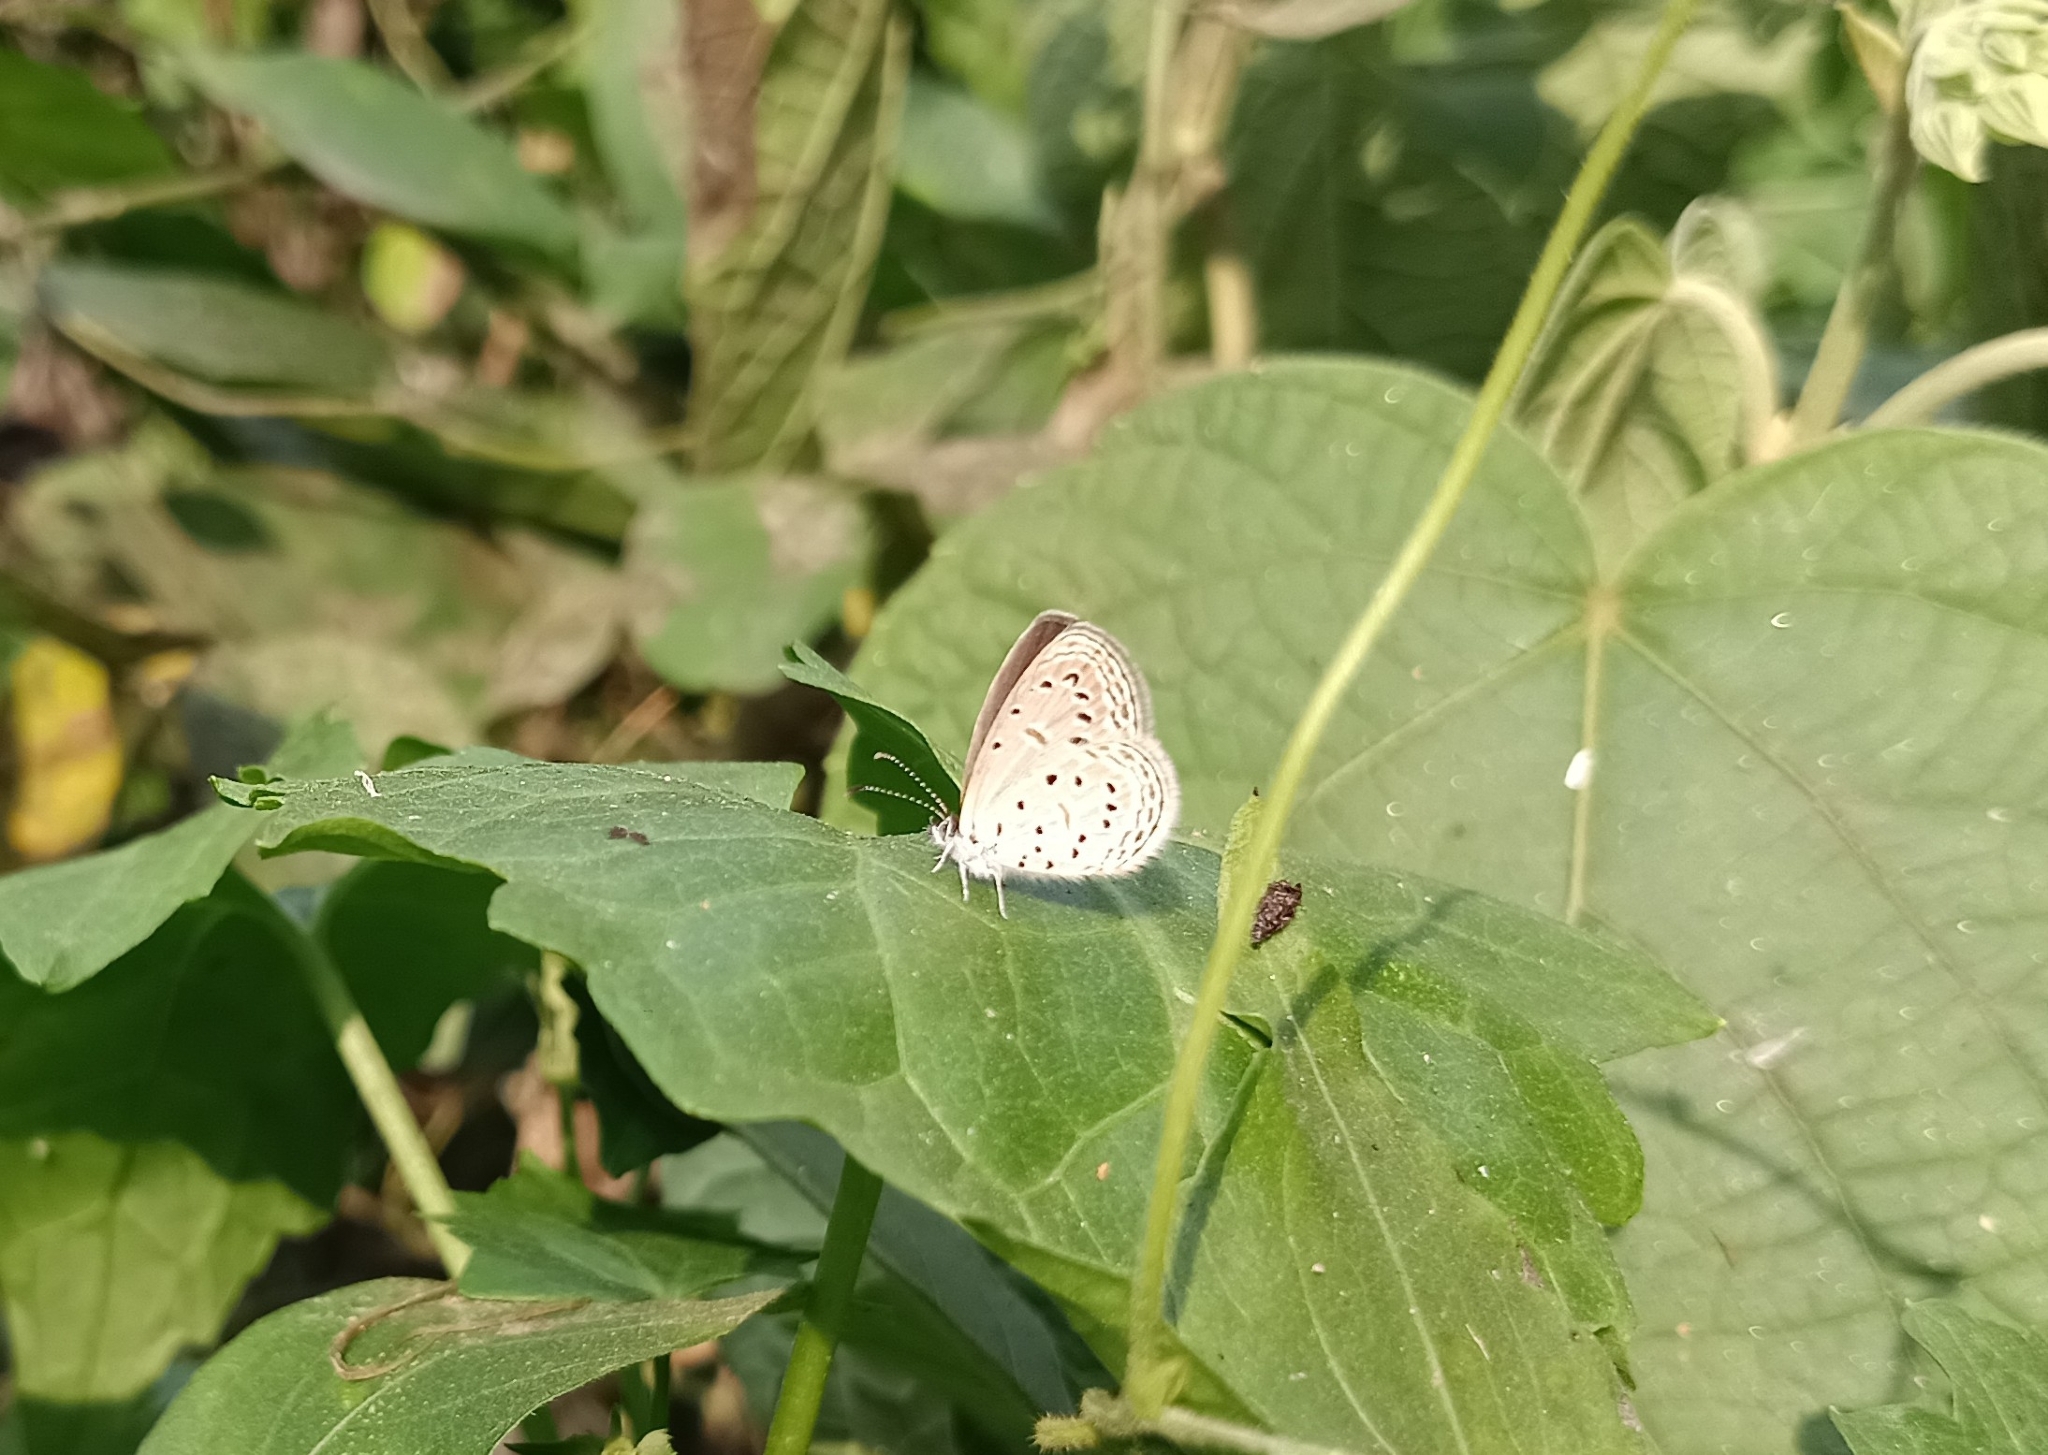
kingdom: Animalia
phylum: Arthropoda
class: Insecta
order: Lepidoptera
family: Lycaenidae
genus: Zizula
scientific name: Zizula hylax
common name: Gaika blue
